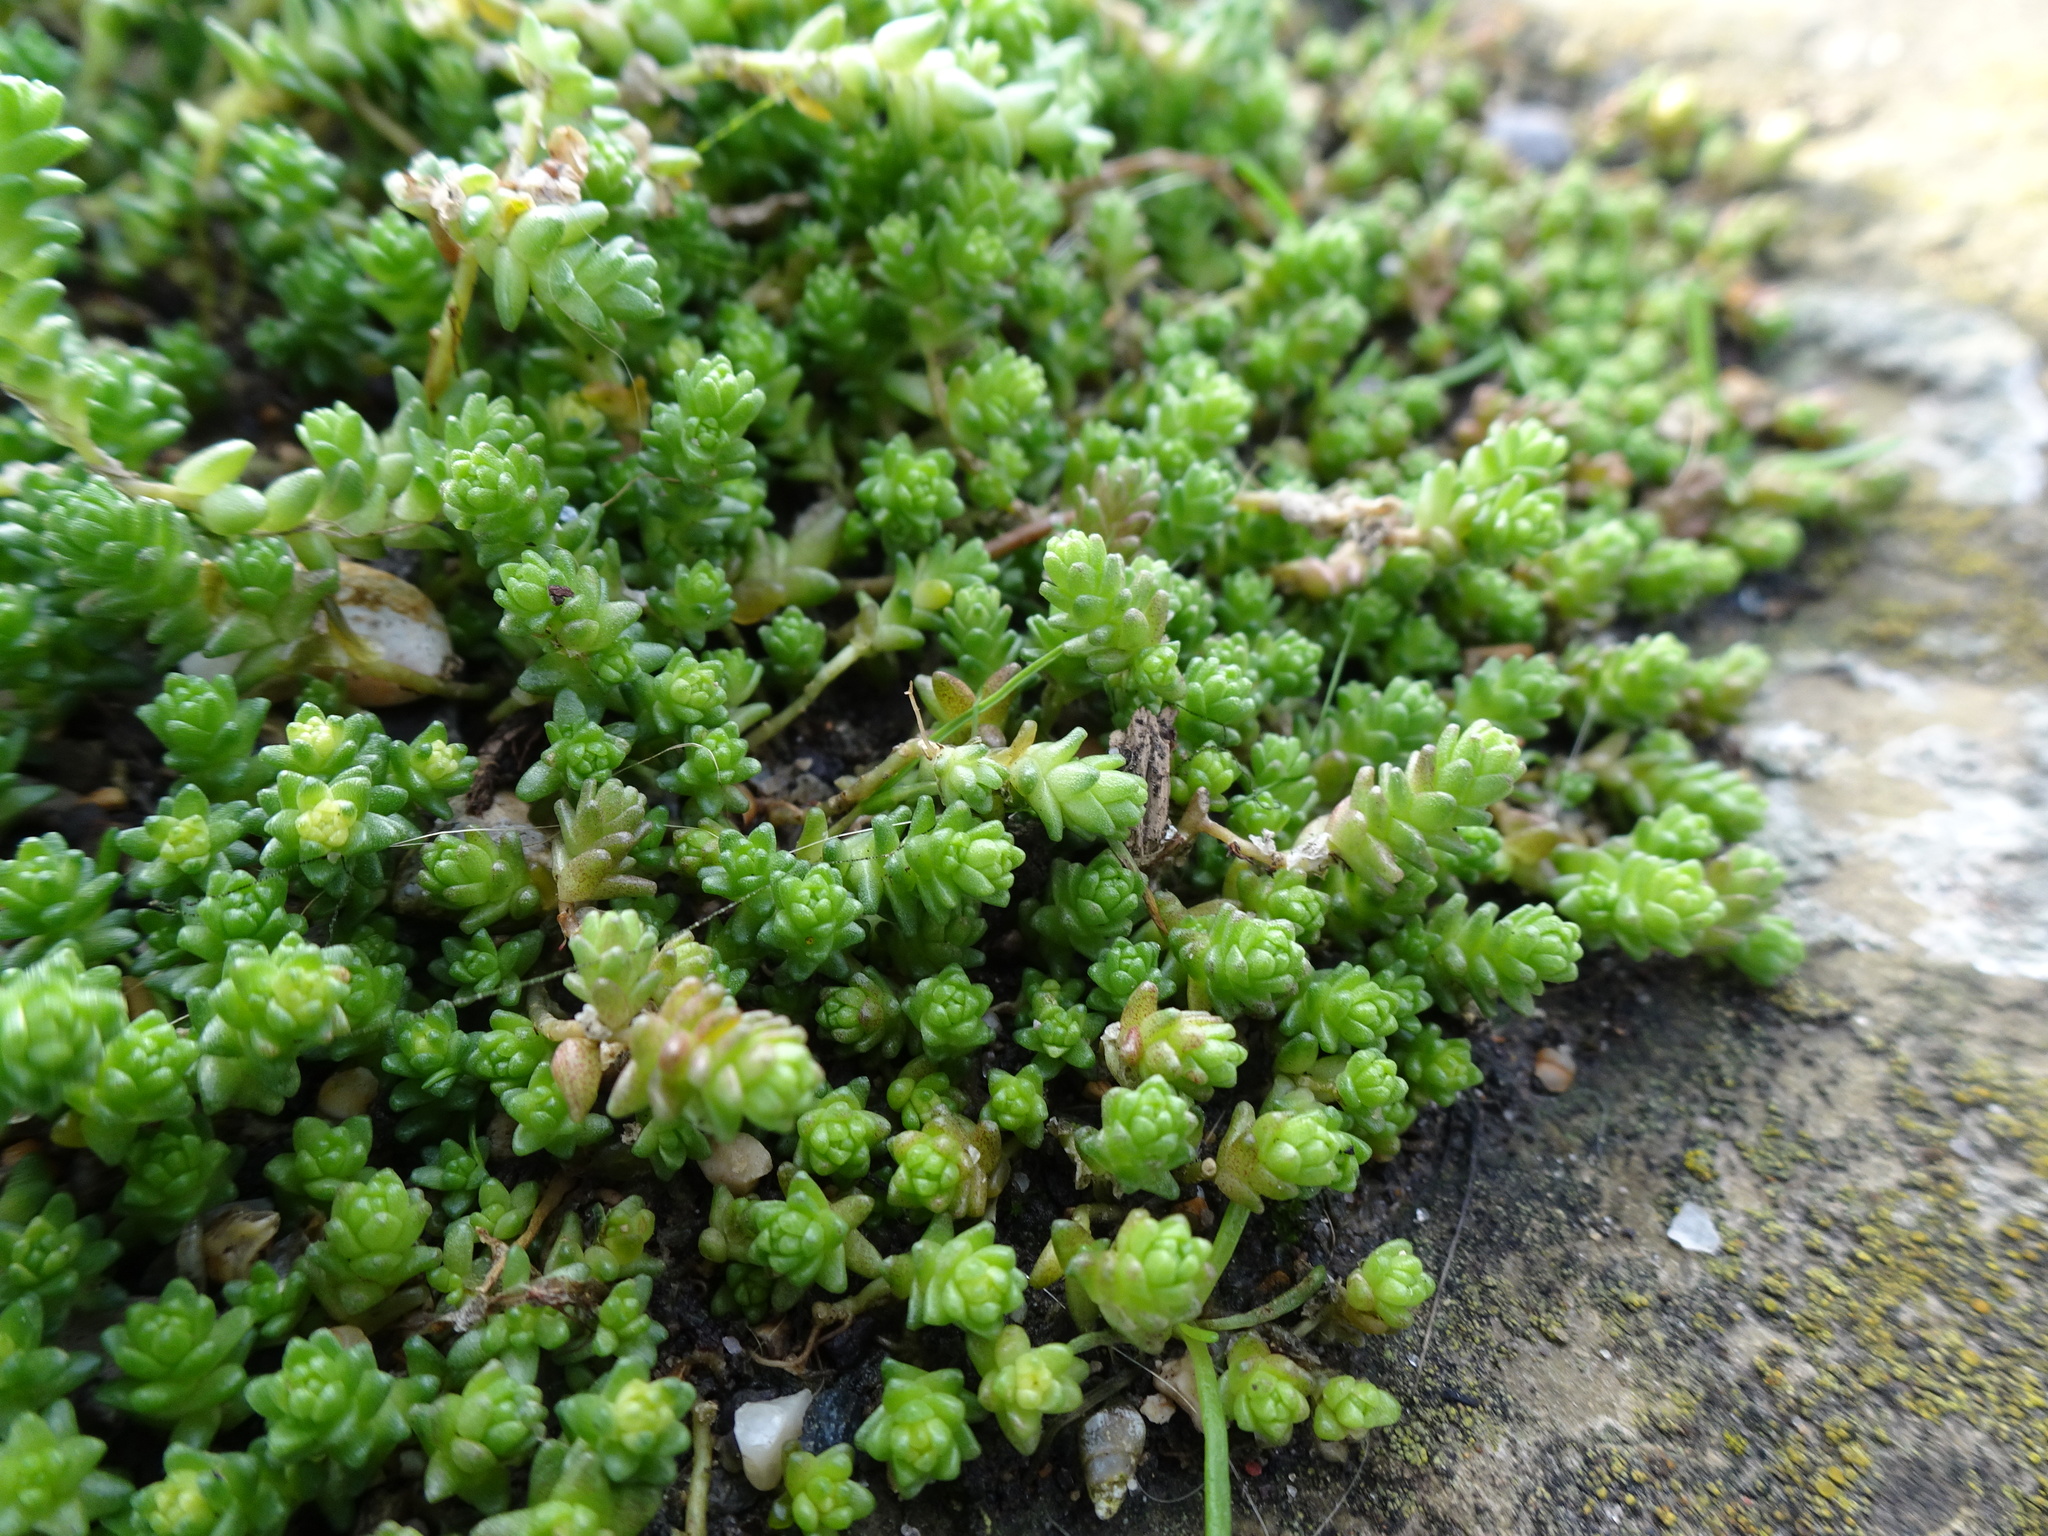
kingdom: Plantae
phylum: Tracheophyta
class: Magnoliopsida
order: Saxifragales
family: Crassulaceae
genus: Sedum
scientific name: Sedum acre
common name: Biting stonecrop
